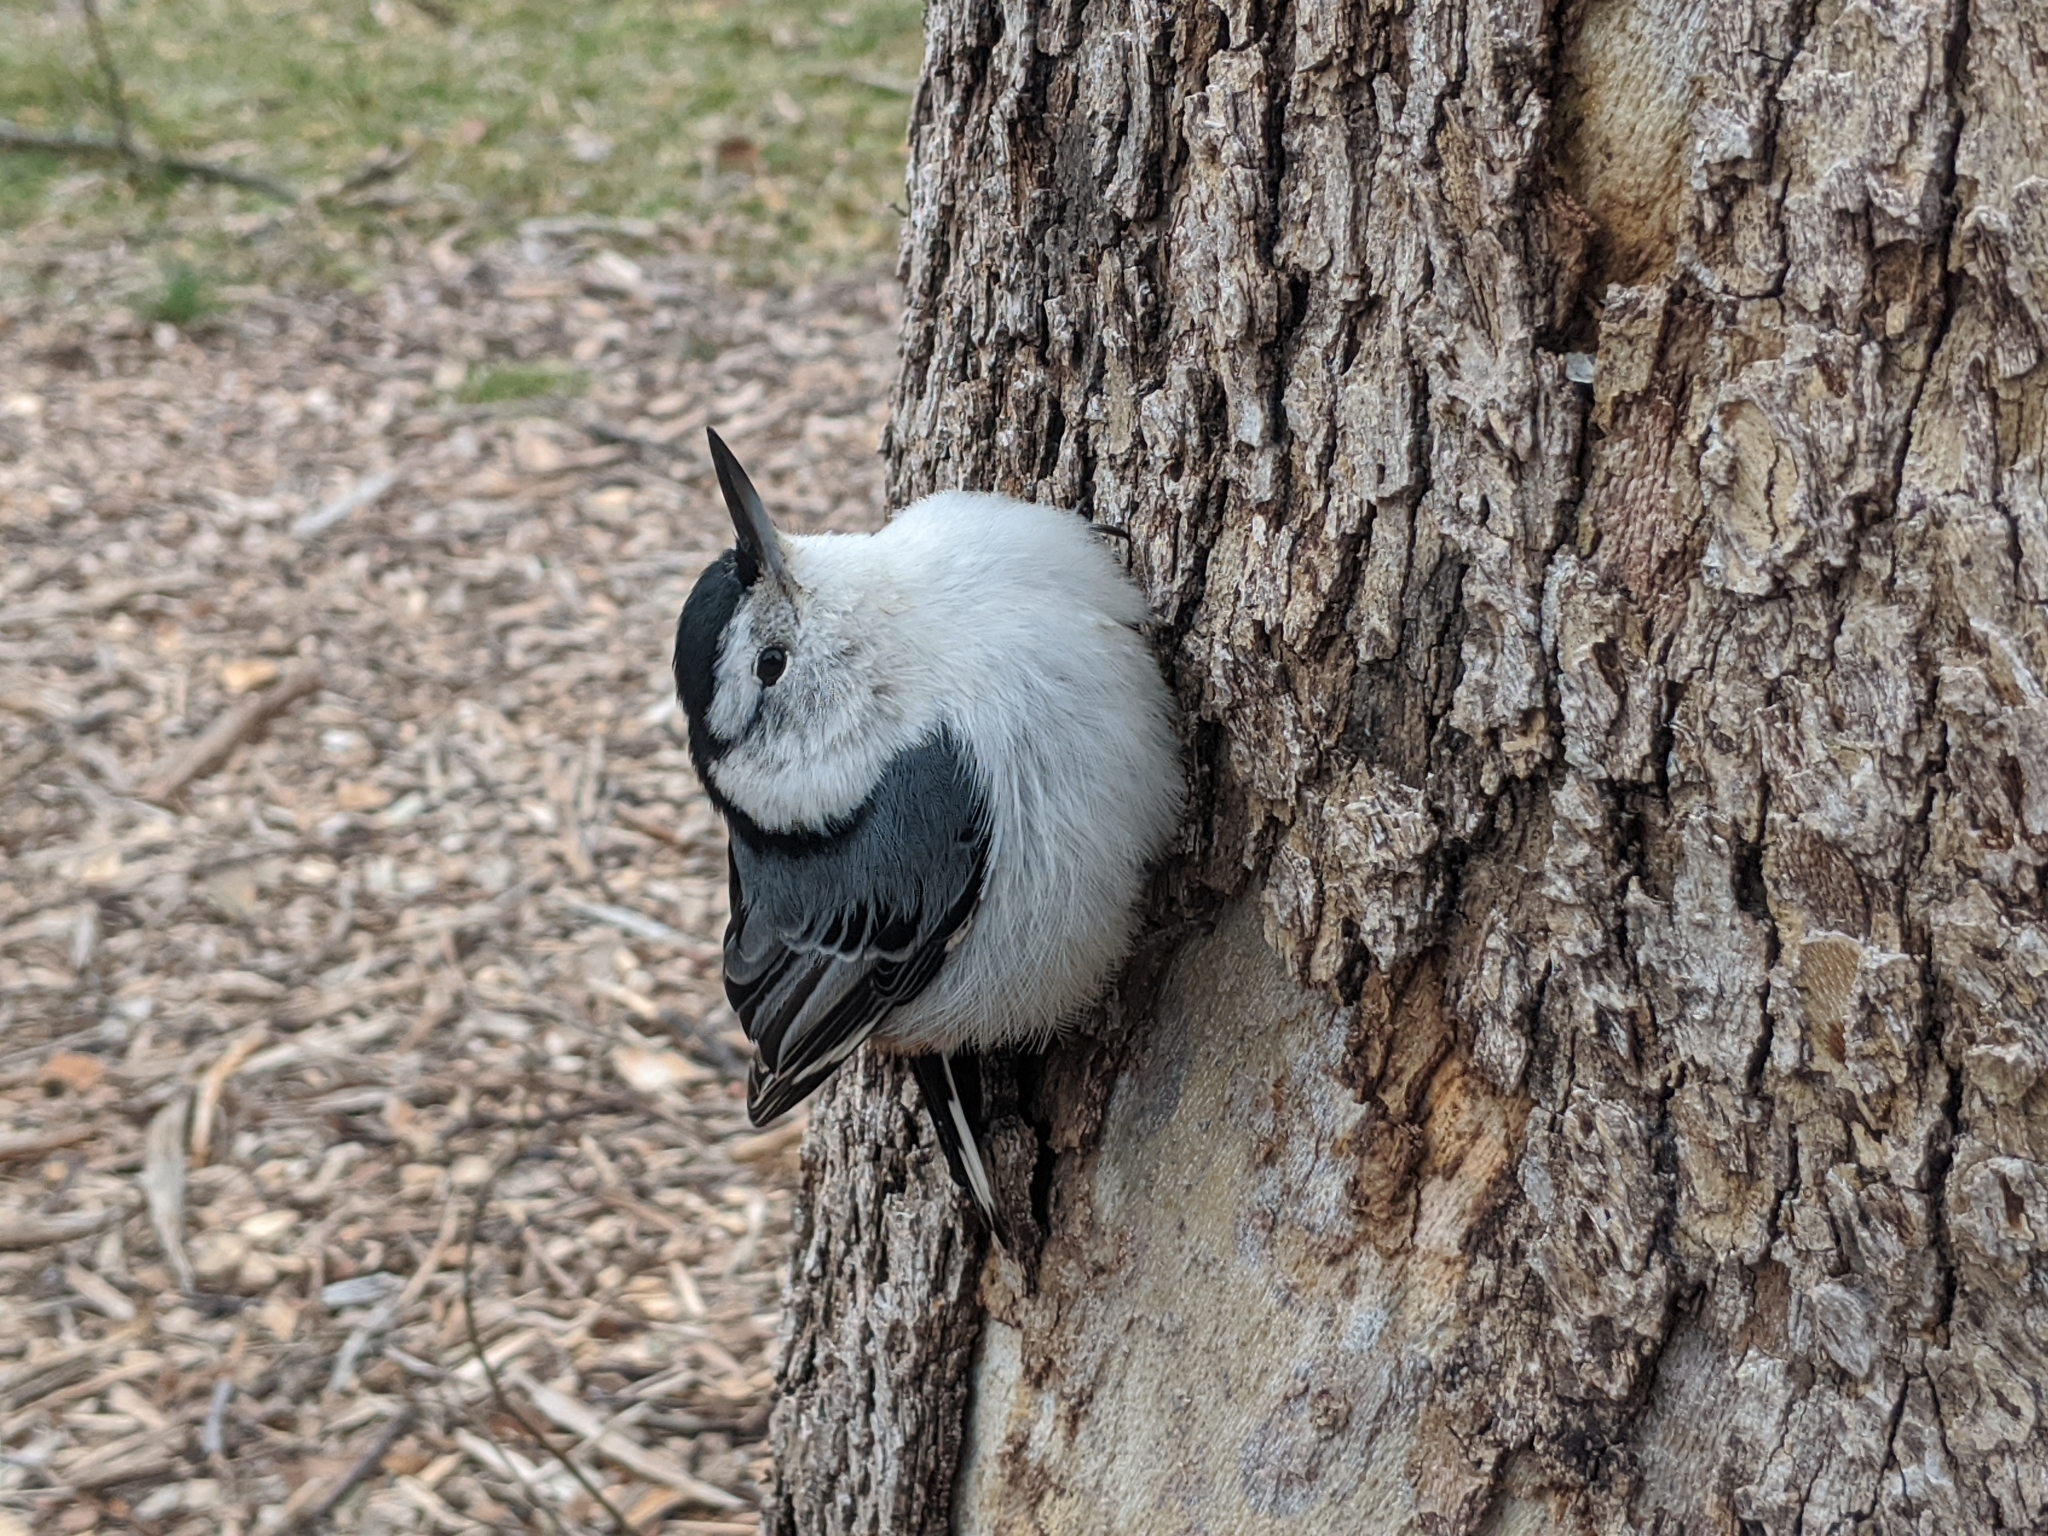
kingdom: Animalia
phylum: Chordata
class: Aves
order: Passeriformes
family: Sittidae
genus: Sitta
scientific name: Sitta carolinensis
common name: White-breasted nuthatch
